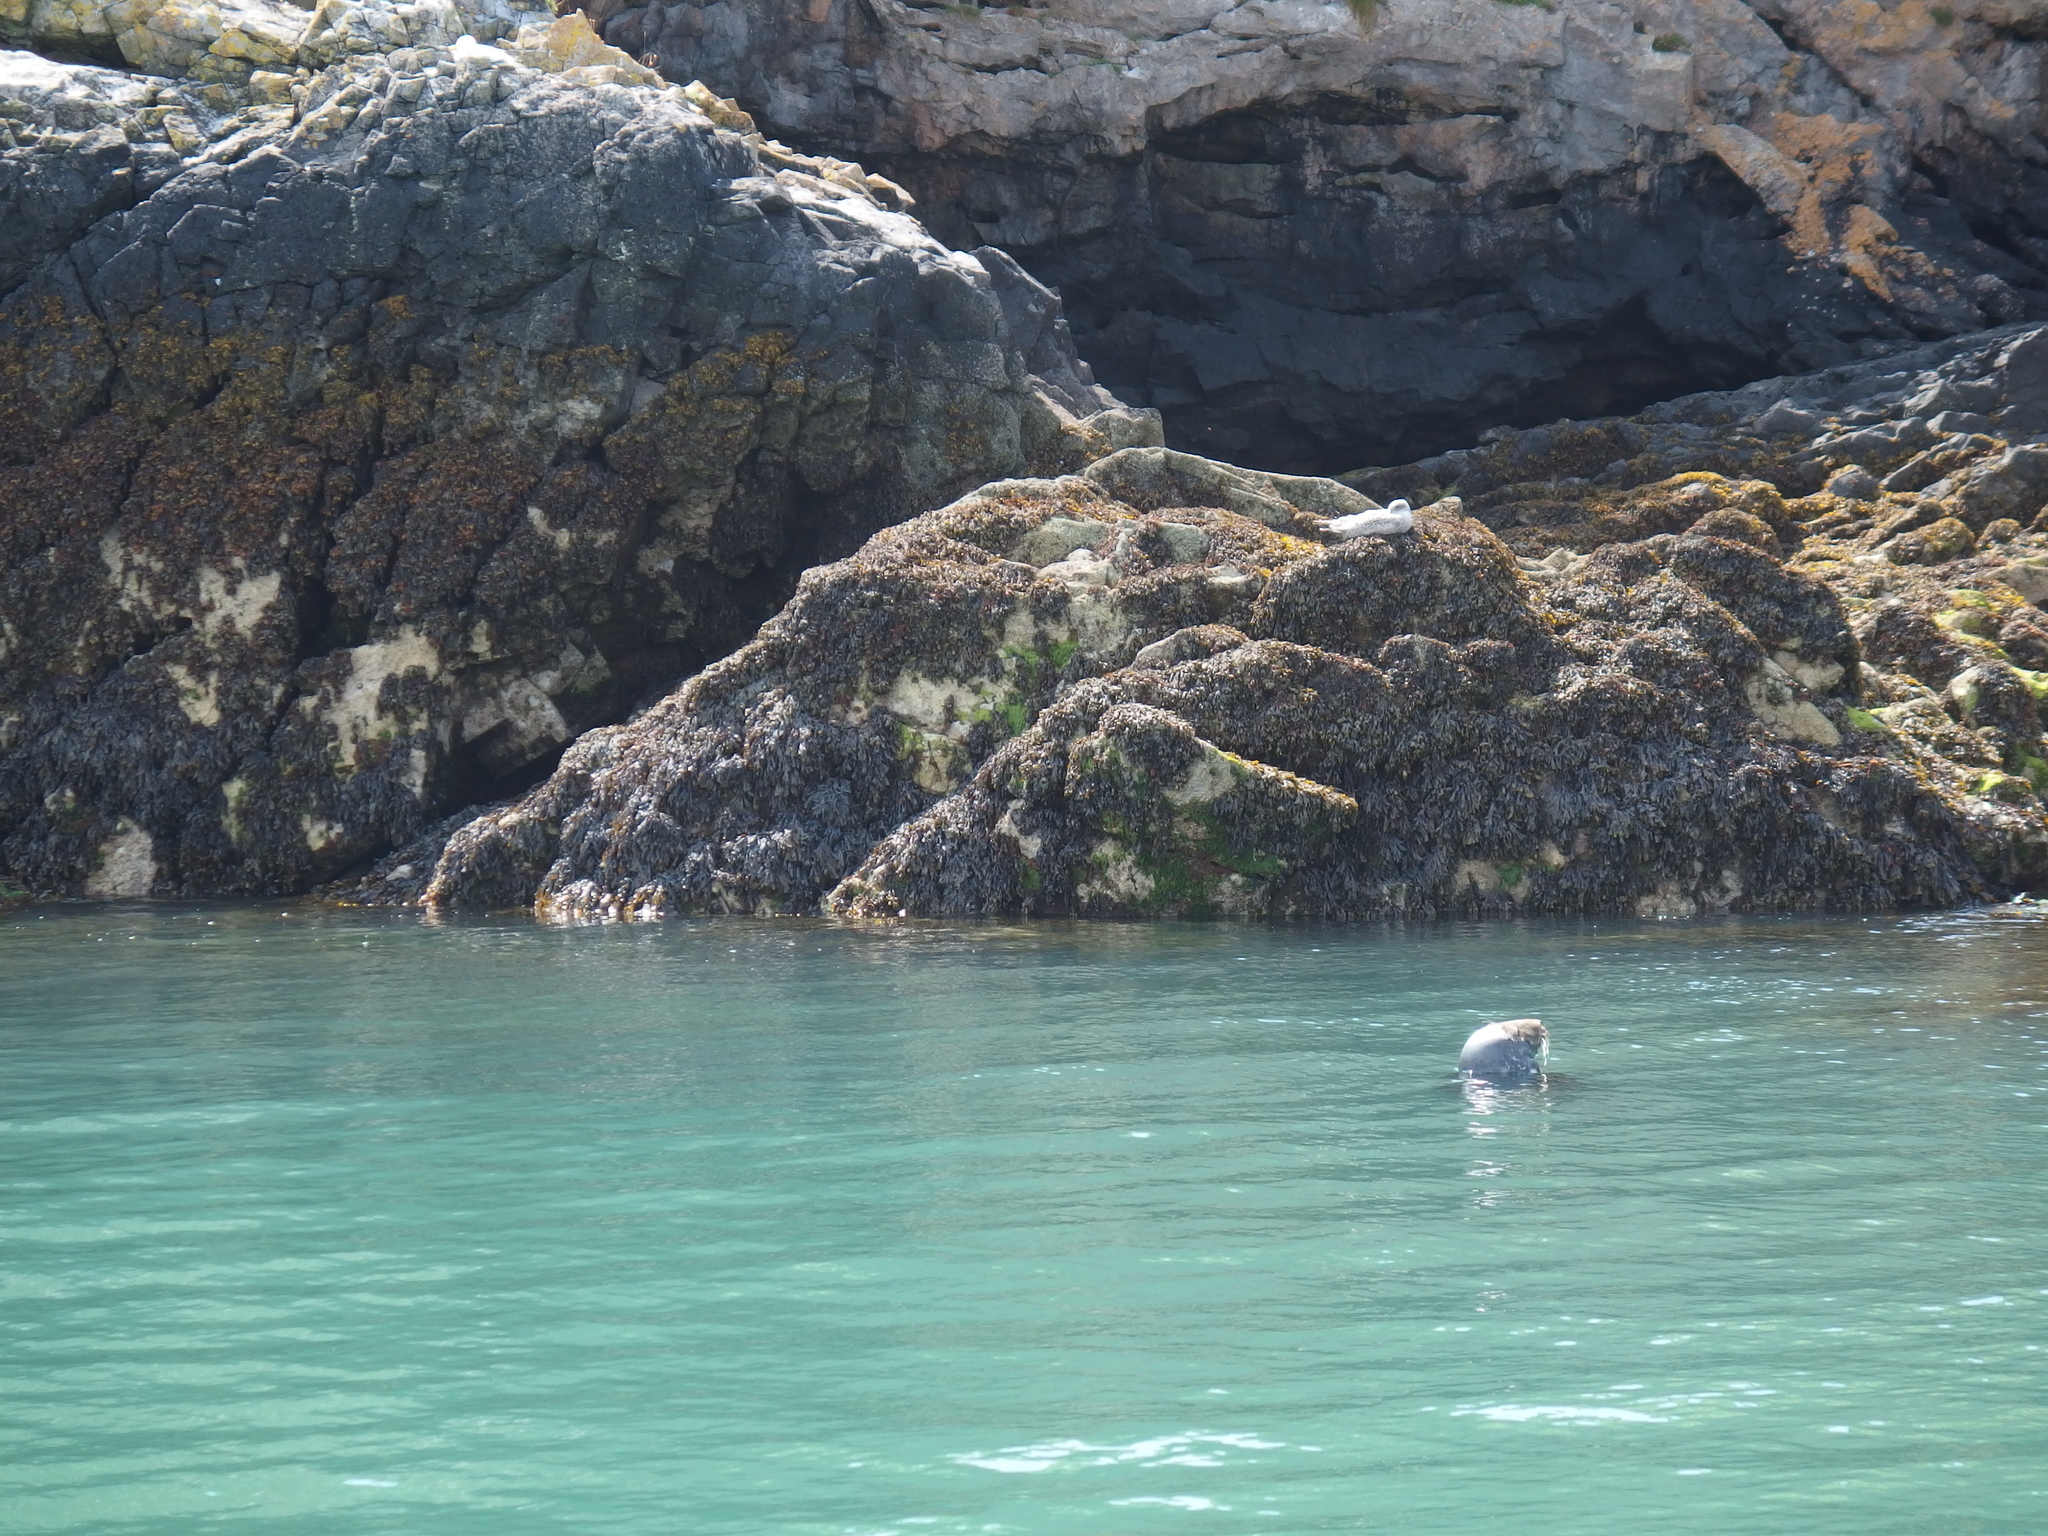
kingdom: Animalia
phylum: Chordata
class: Mammalia
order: Carnivora
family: Phocidae
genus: Halichoerus
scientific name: Halichoerus grypus
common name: Grey seal
